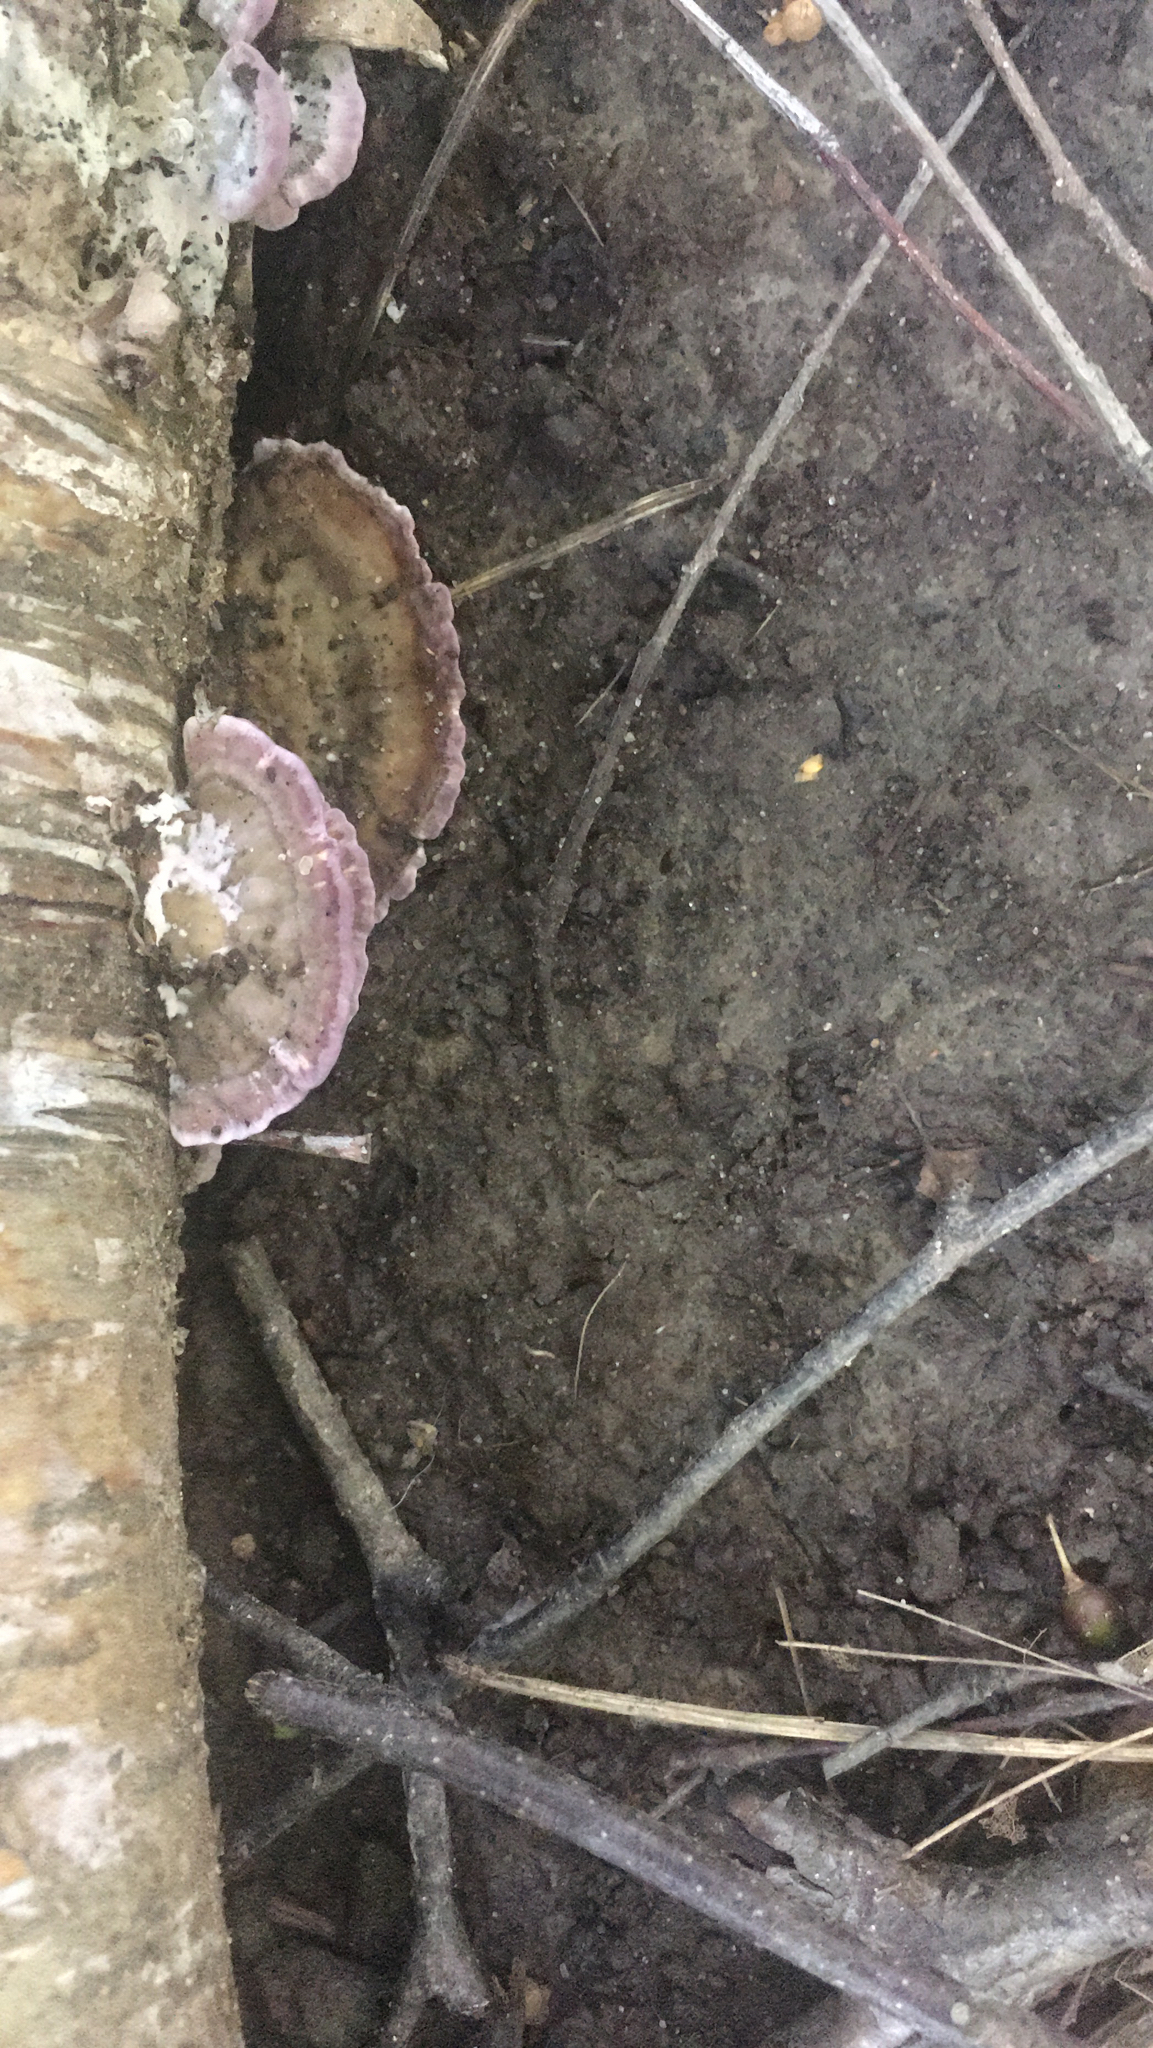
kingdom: Fungi
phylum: Basidiomycota
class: Agaricomycetes
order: Hymenochaetales
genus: Trichaptum
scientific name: Trichaptum biforme
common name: Violet-toothed polypore
